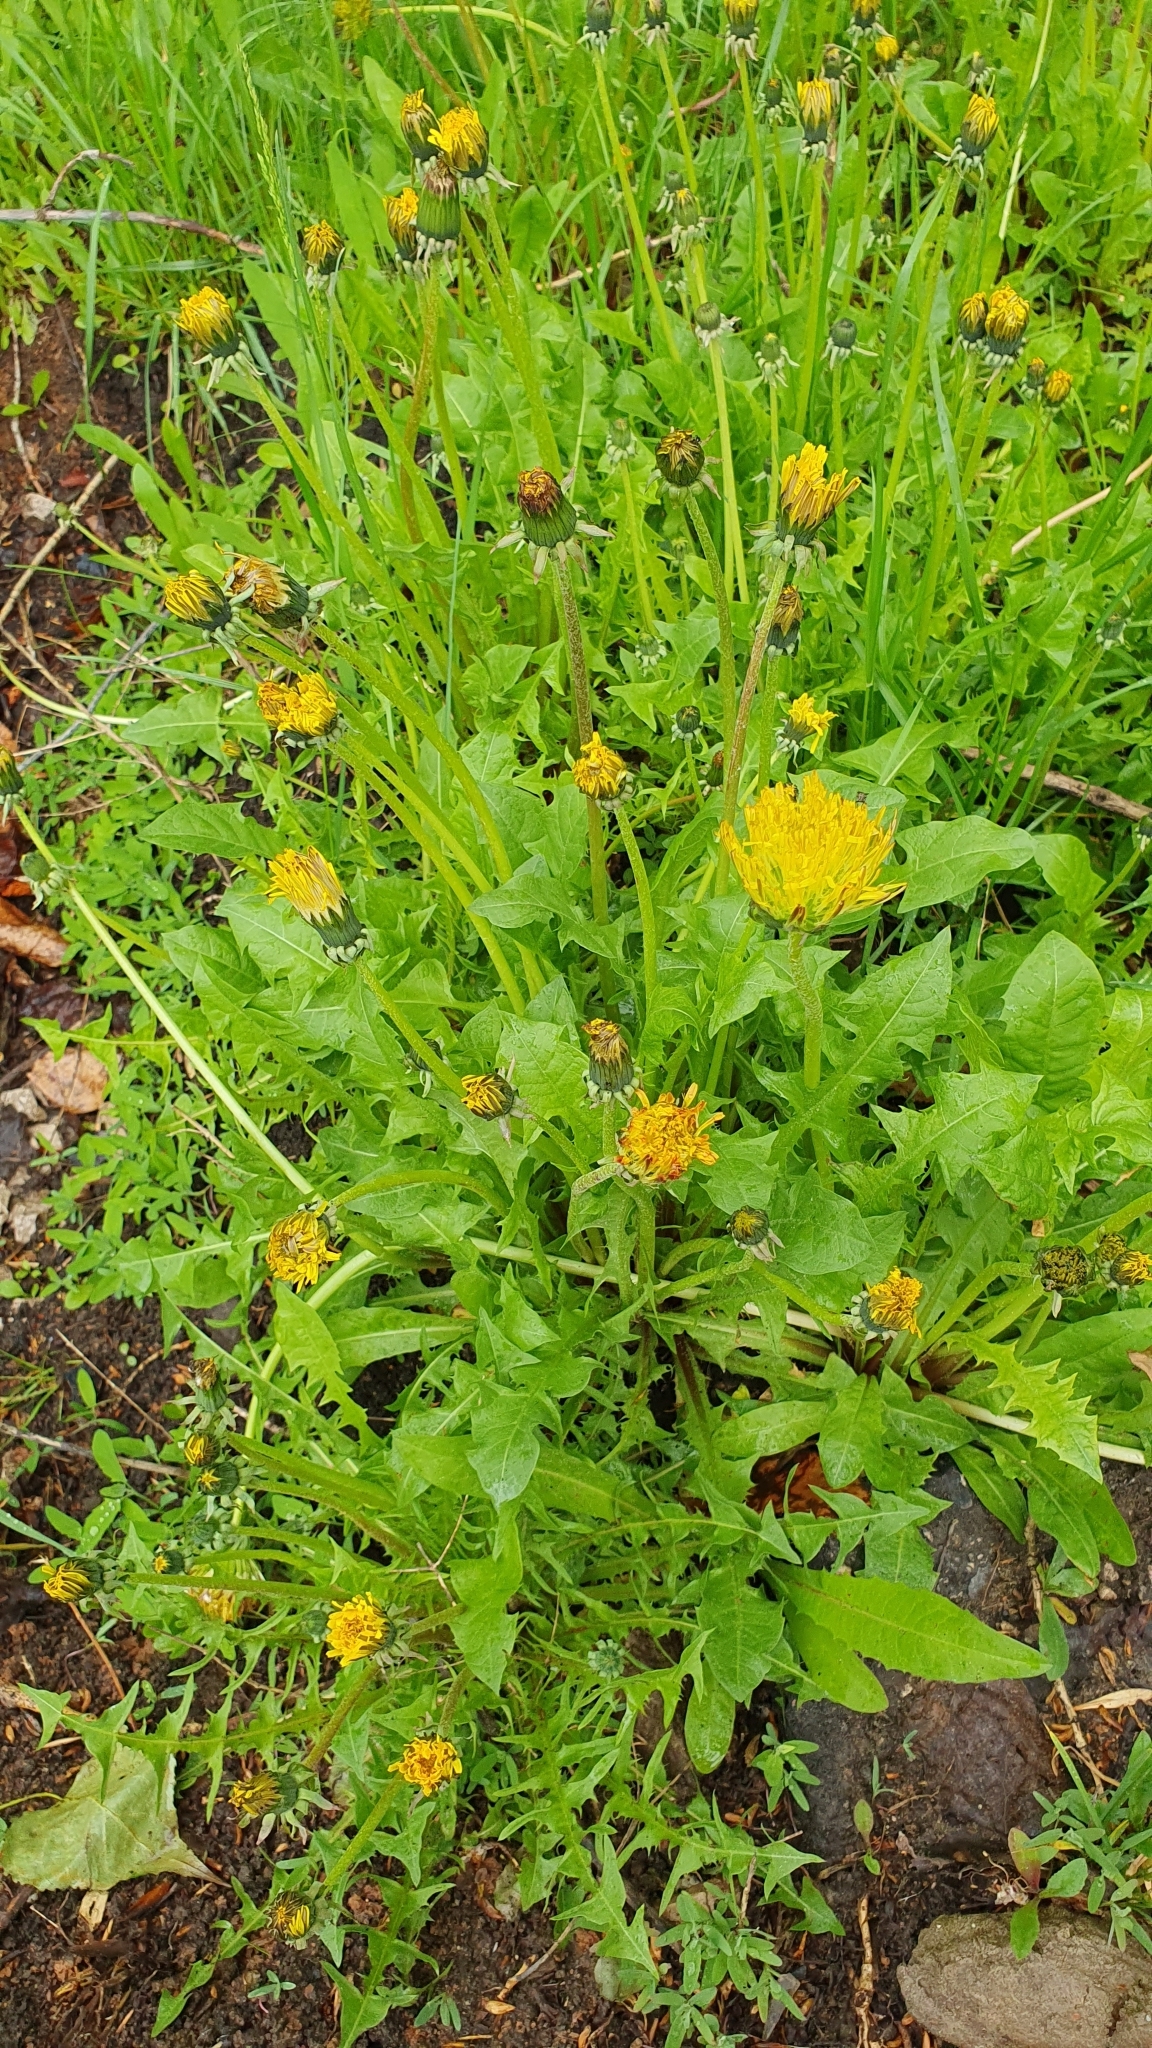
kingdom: Plantae
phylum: Tracheophyta
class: Magnoliopsida
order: Asterales
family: Asteraceae
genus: Taraxacum
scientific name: Taraxacum officinale
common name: Common dandelion
